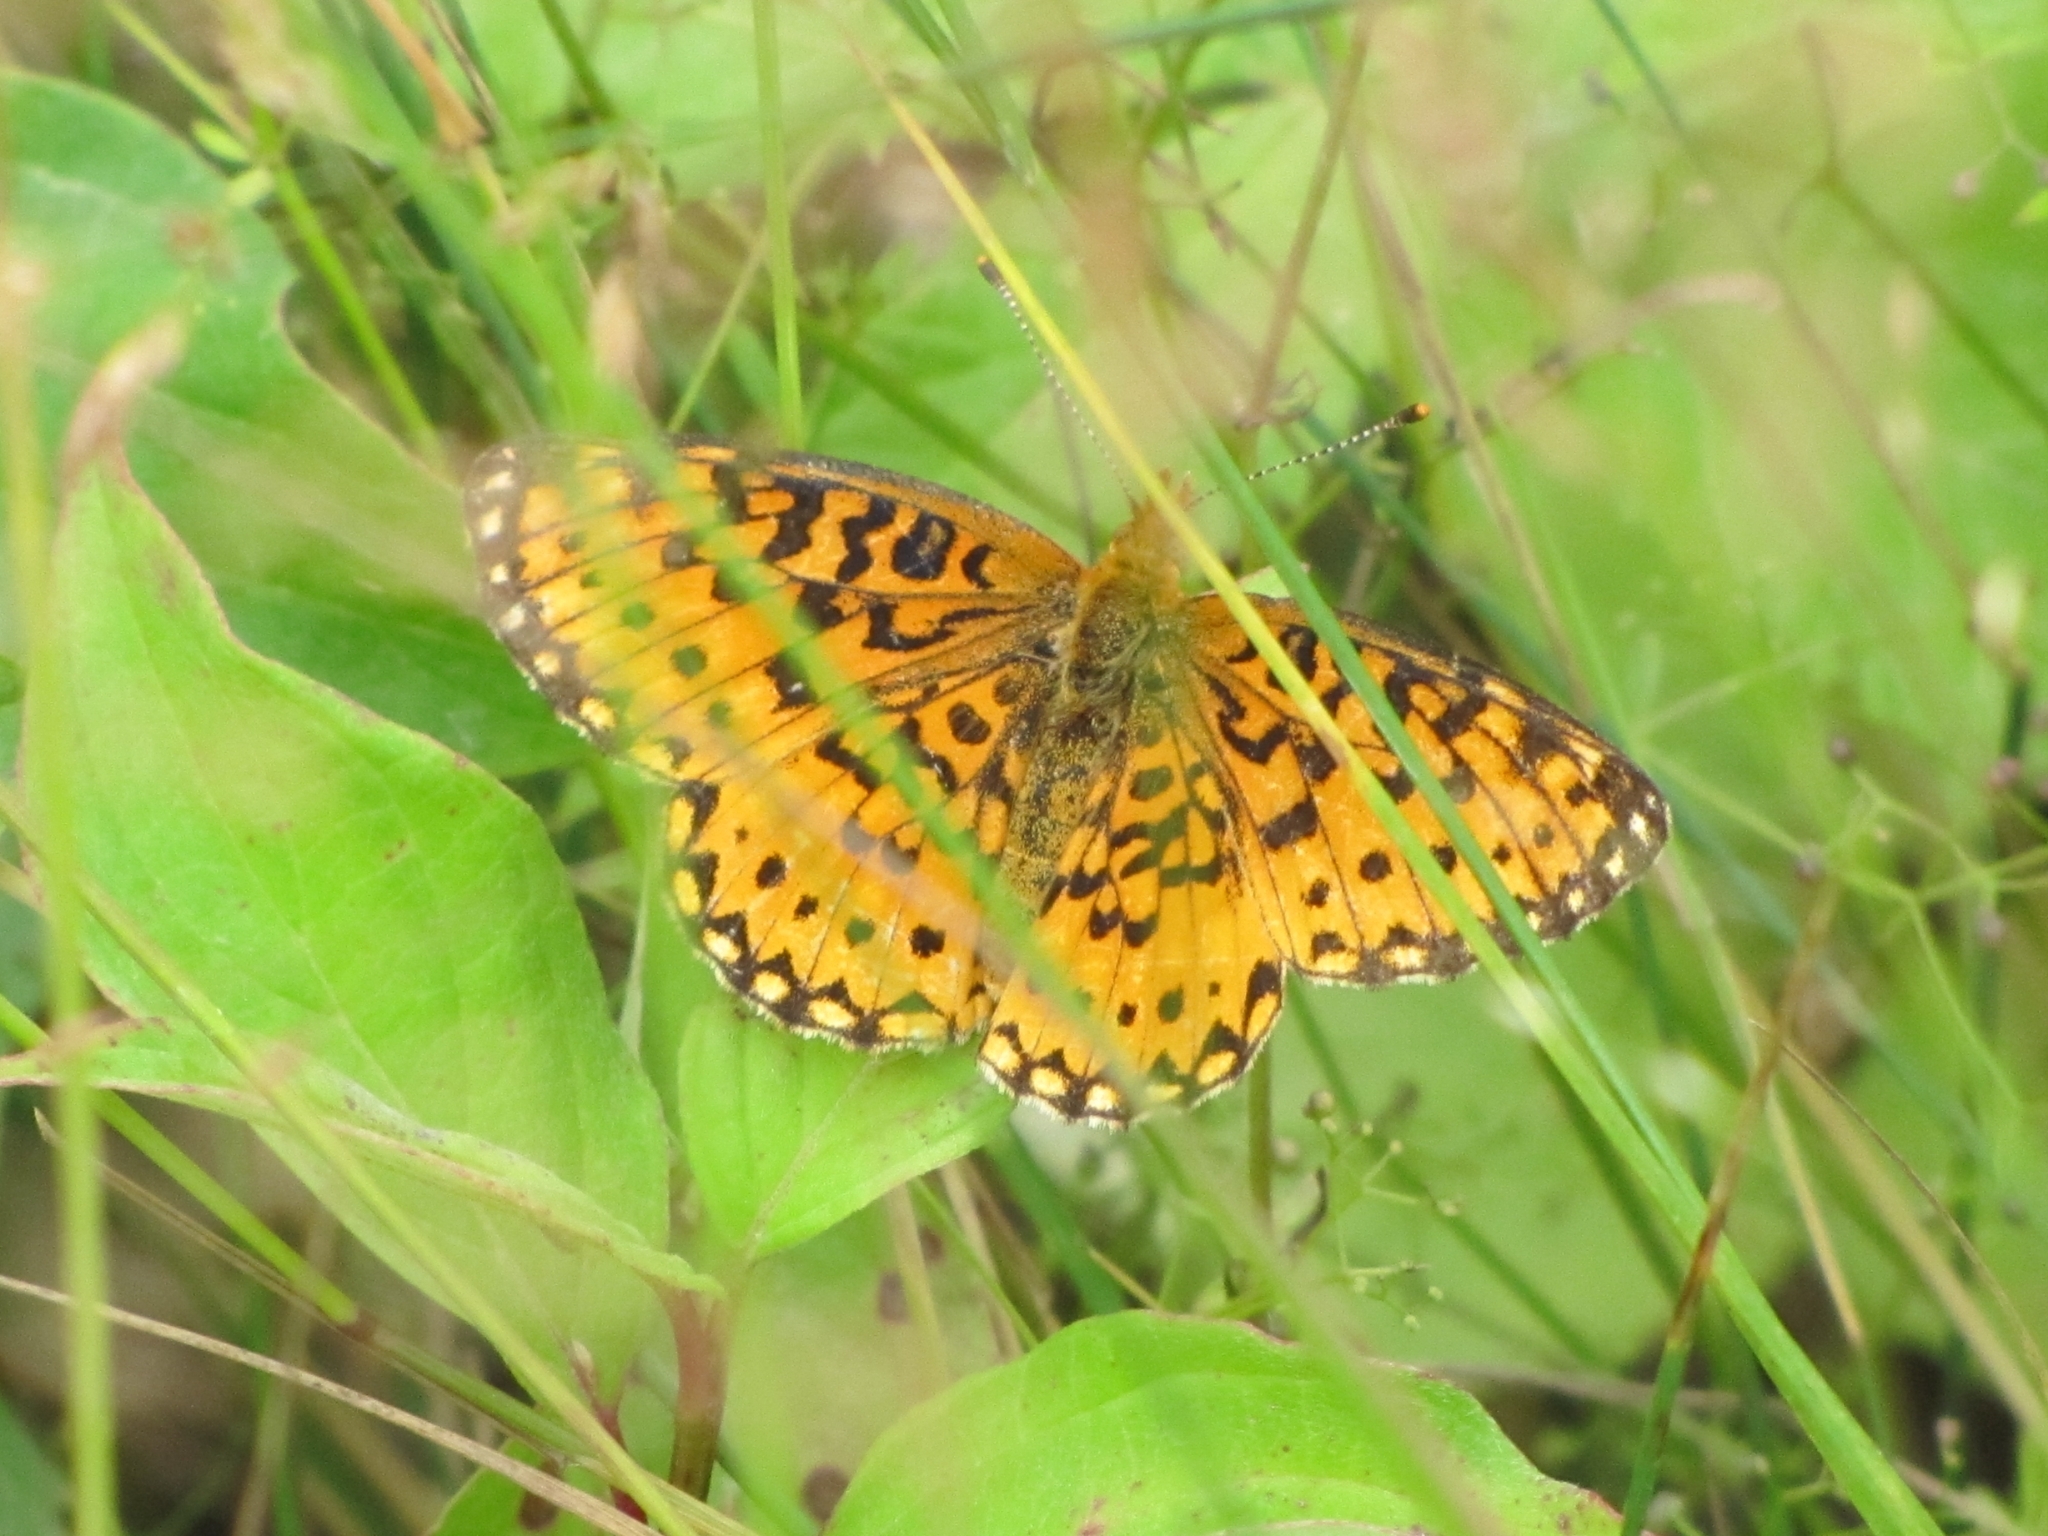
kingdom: Animalia
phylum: Arthropoda
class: Insecta
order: Lepidoptera
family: Nymphalidae
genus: Boloria
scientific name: Boloria
